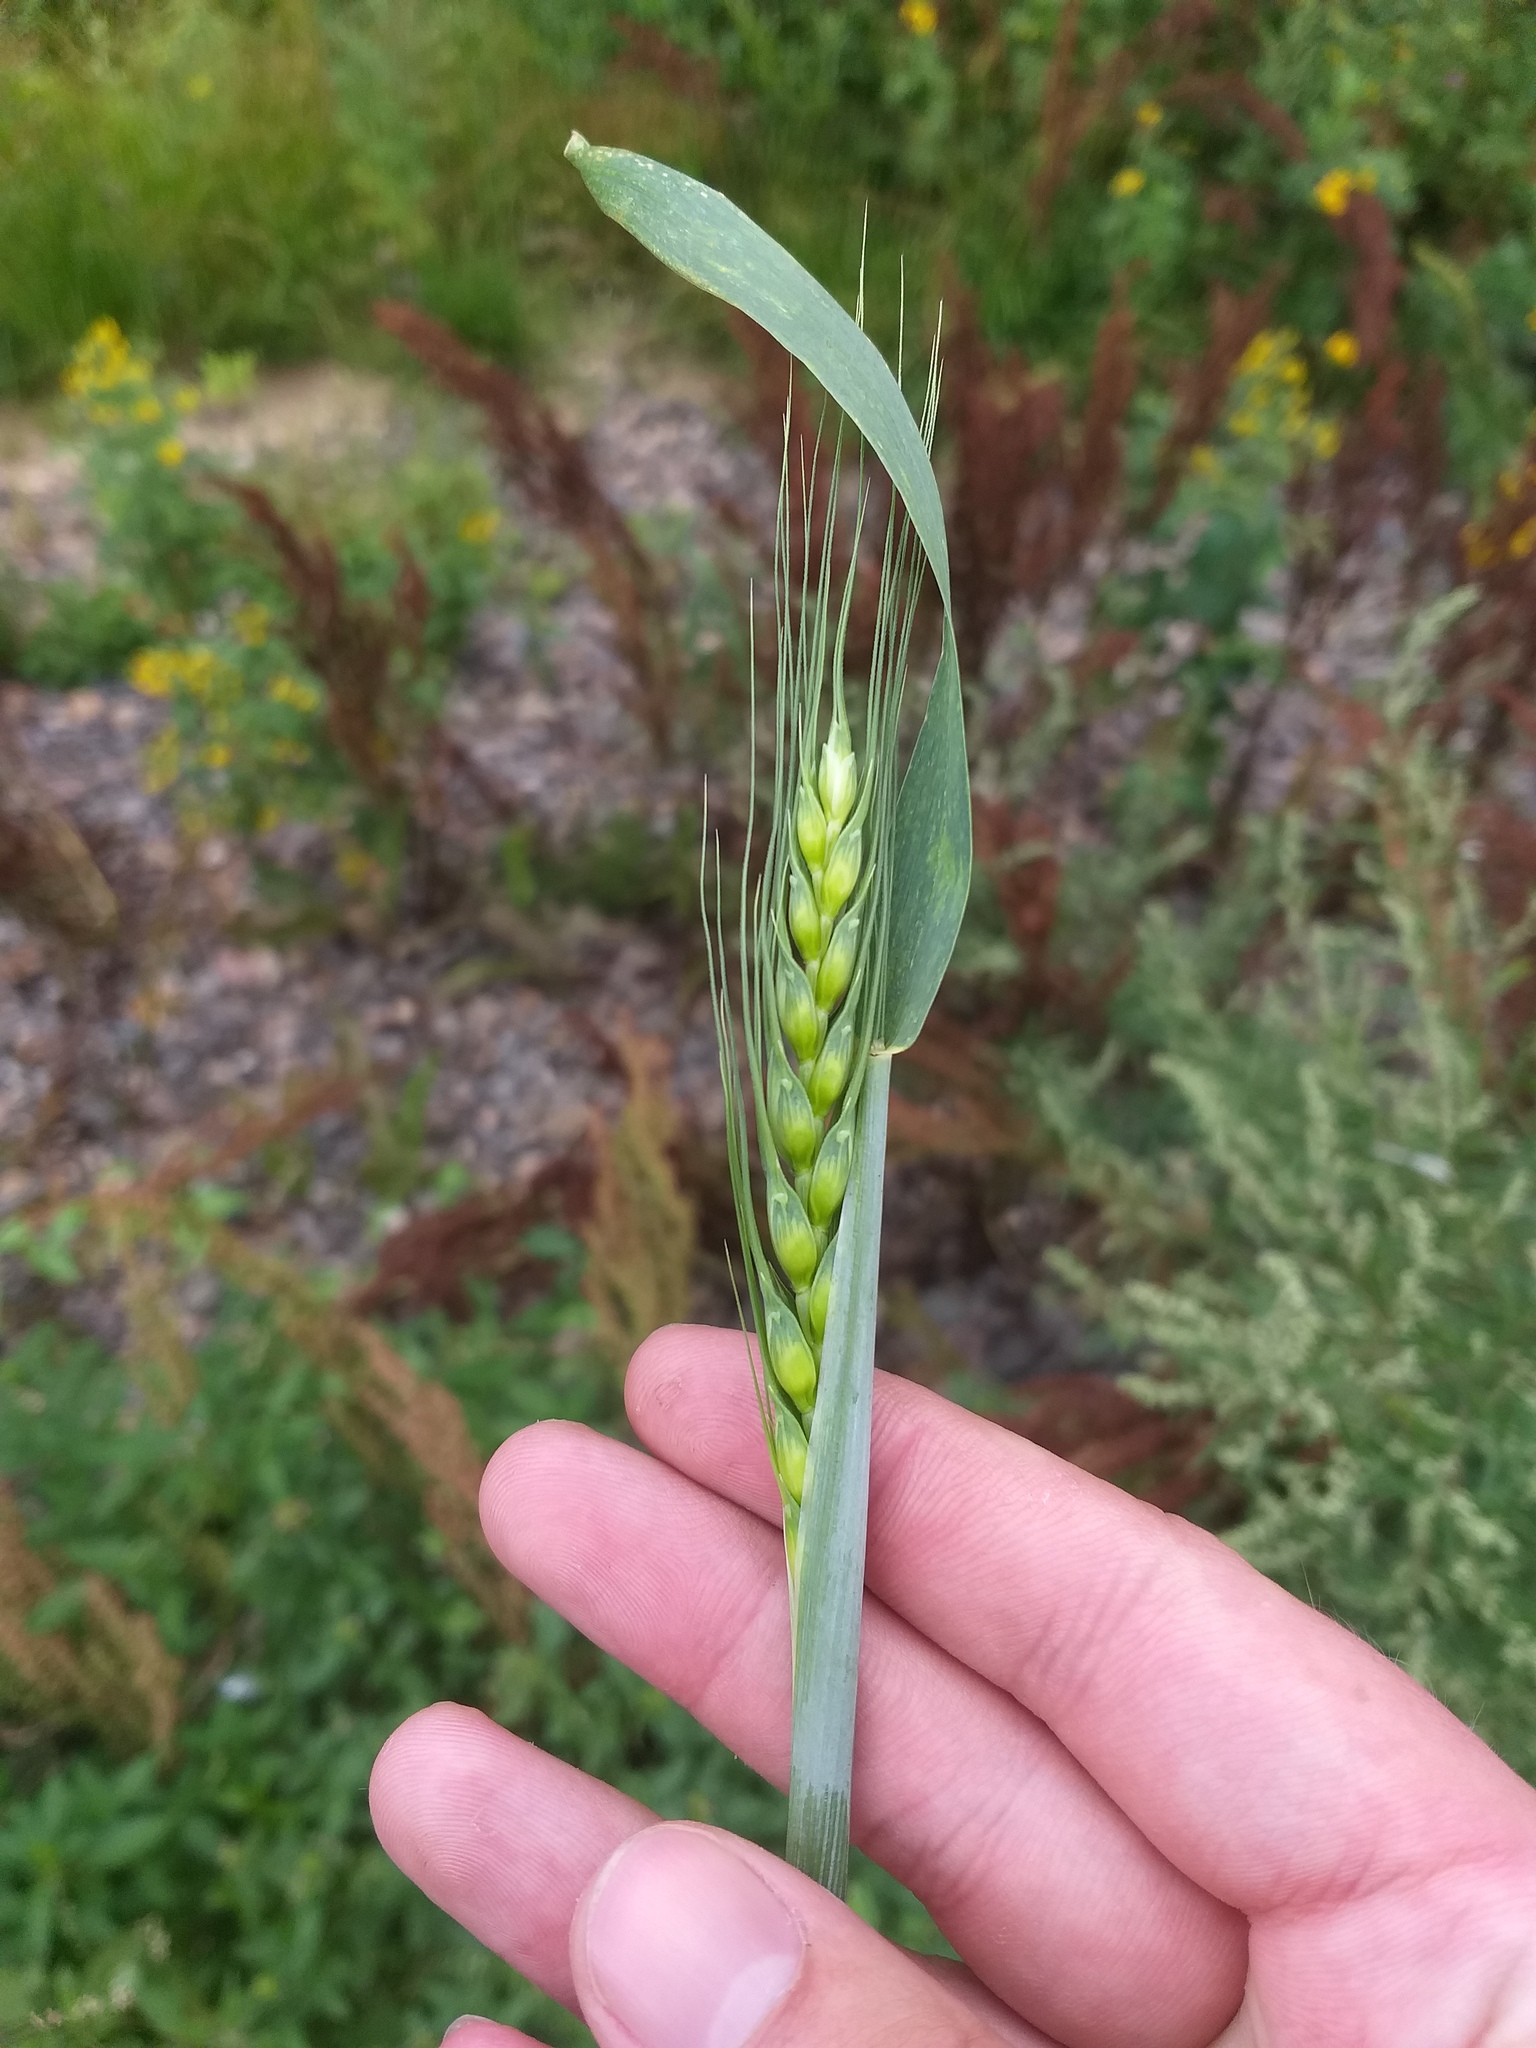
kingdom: Plantae
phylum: Tracheophyta
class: Liliopsida
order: Poales
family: Poaceae
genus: Triticum
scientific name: Triticum aestivum
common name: Common wheat
